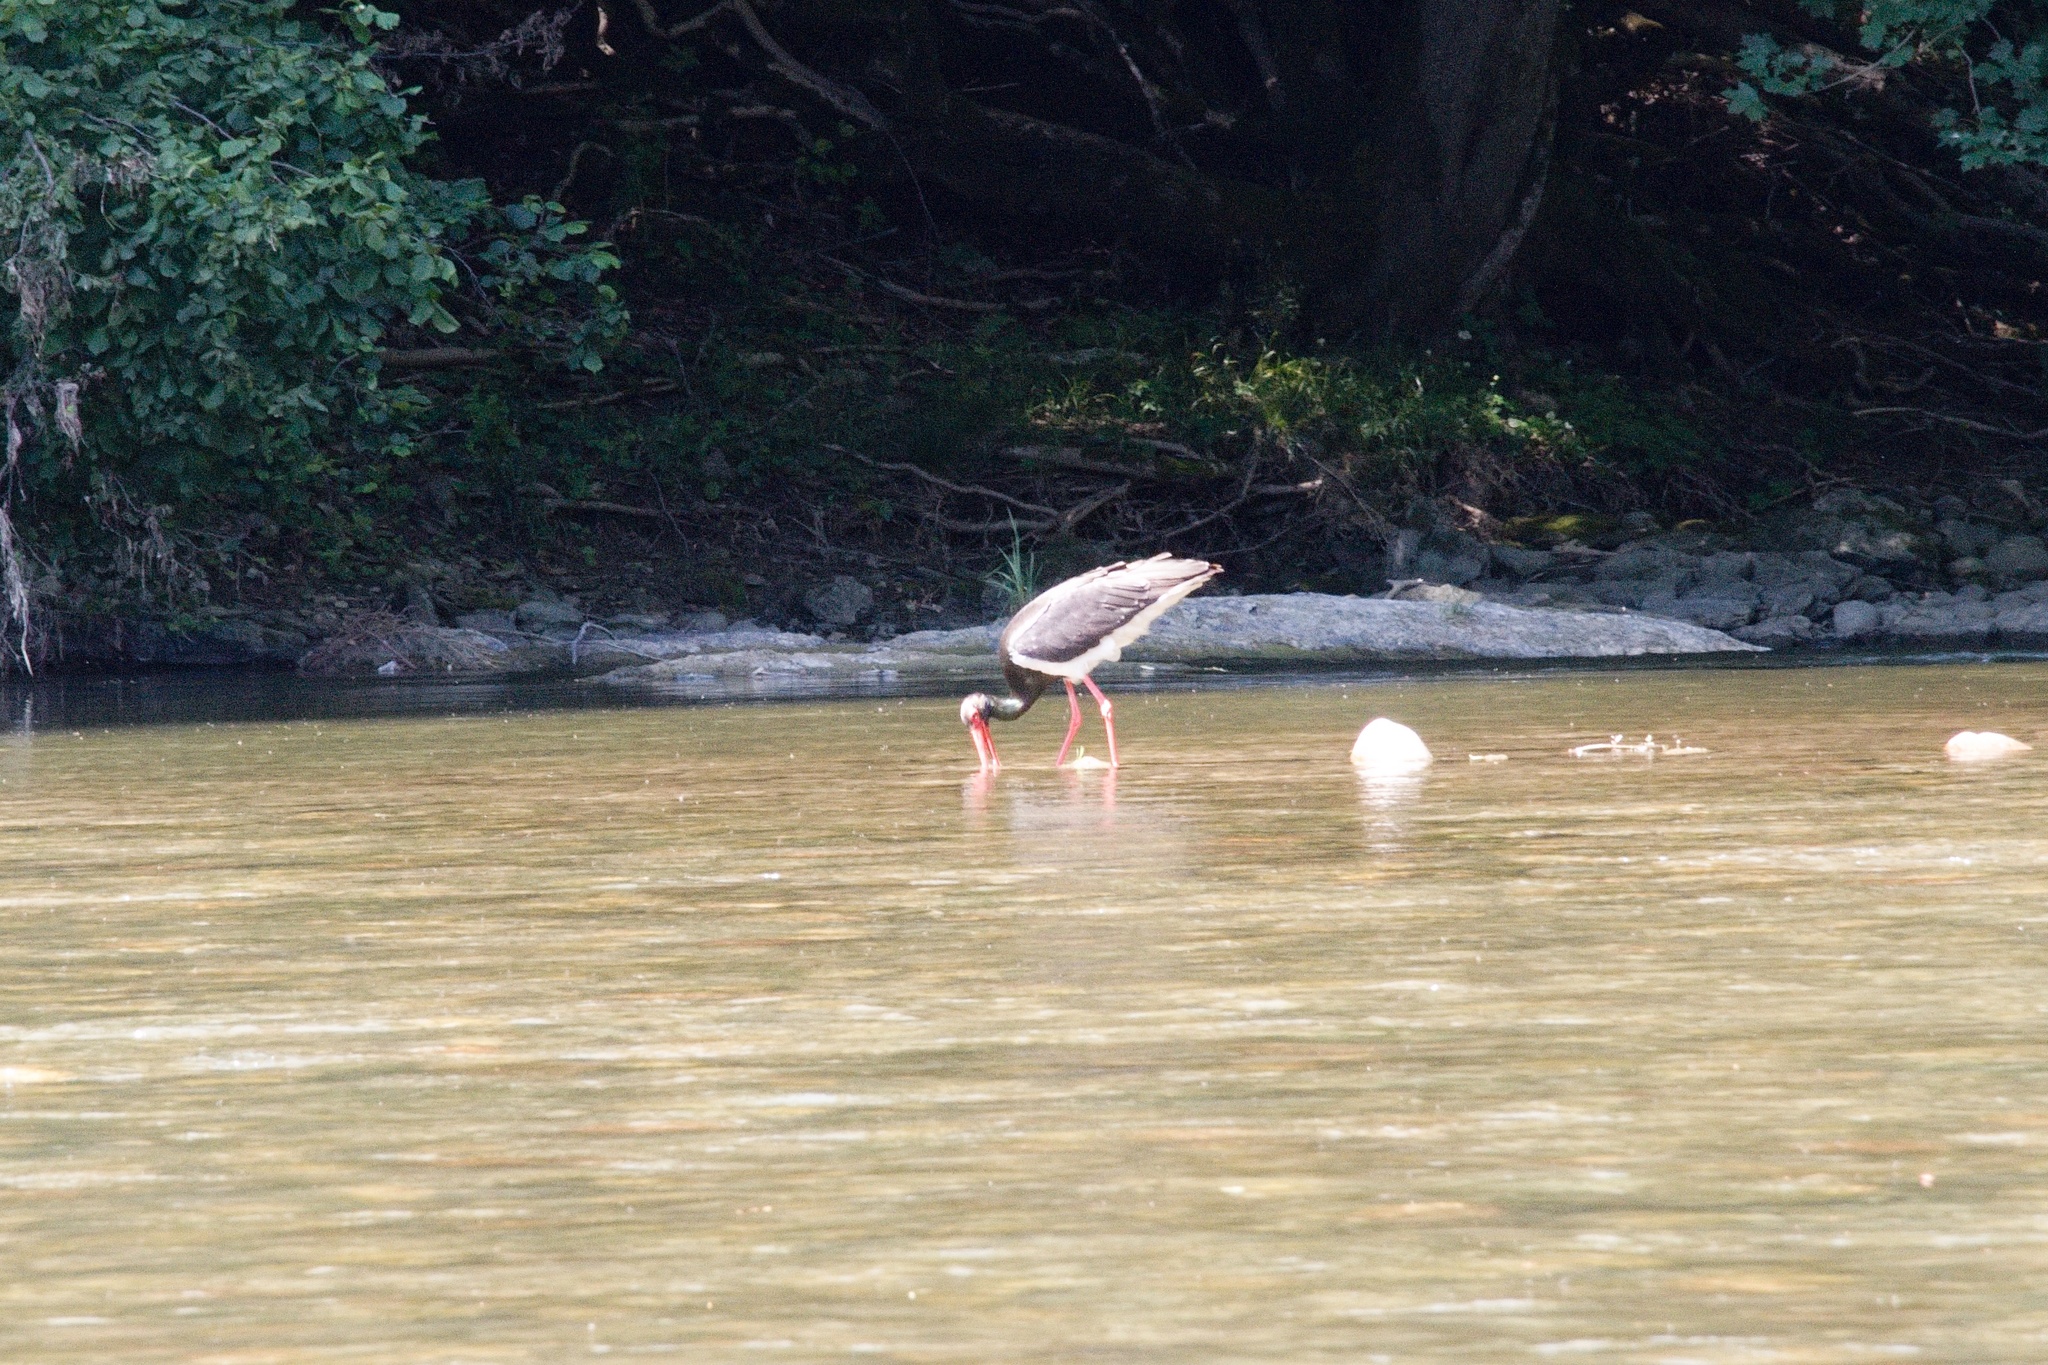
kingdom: Animalia
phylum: Chordata
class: Aves
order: Ciconiiformes
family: Ciconiidae
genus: Ciconia
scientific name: Ciconia nigra
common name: Black stork
